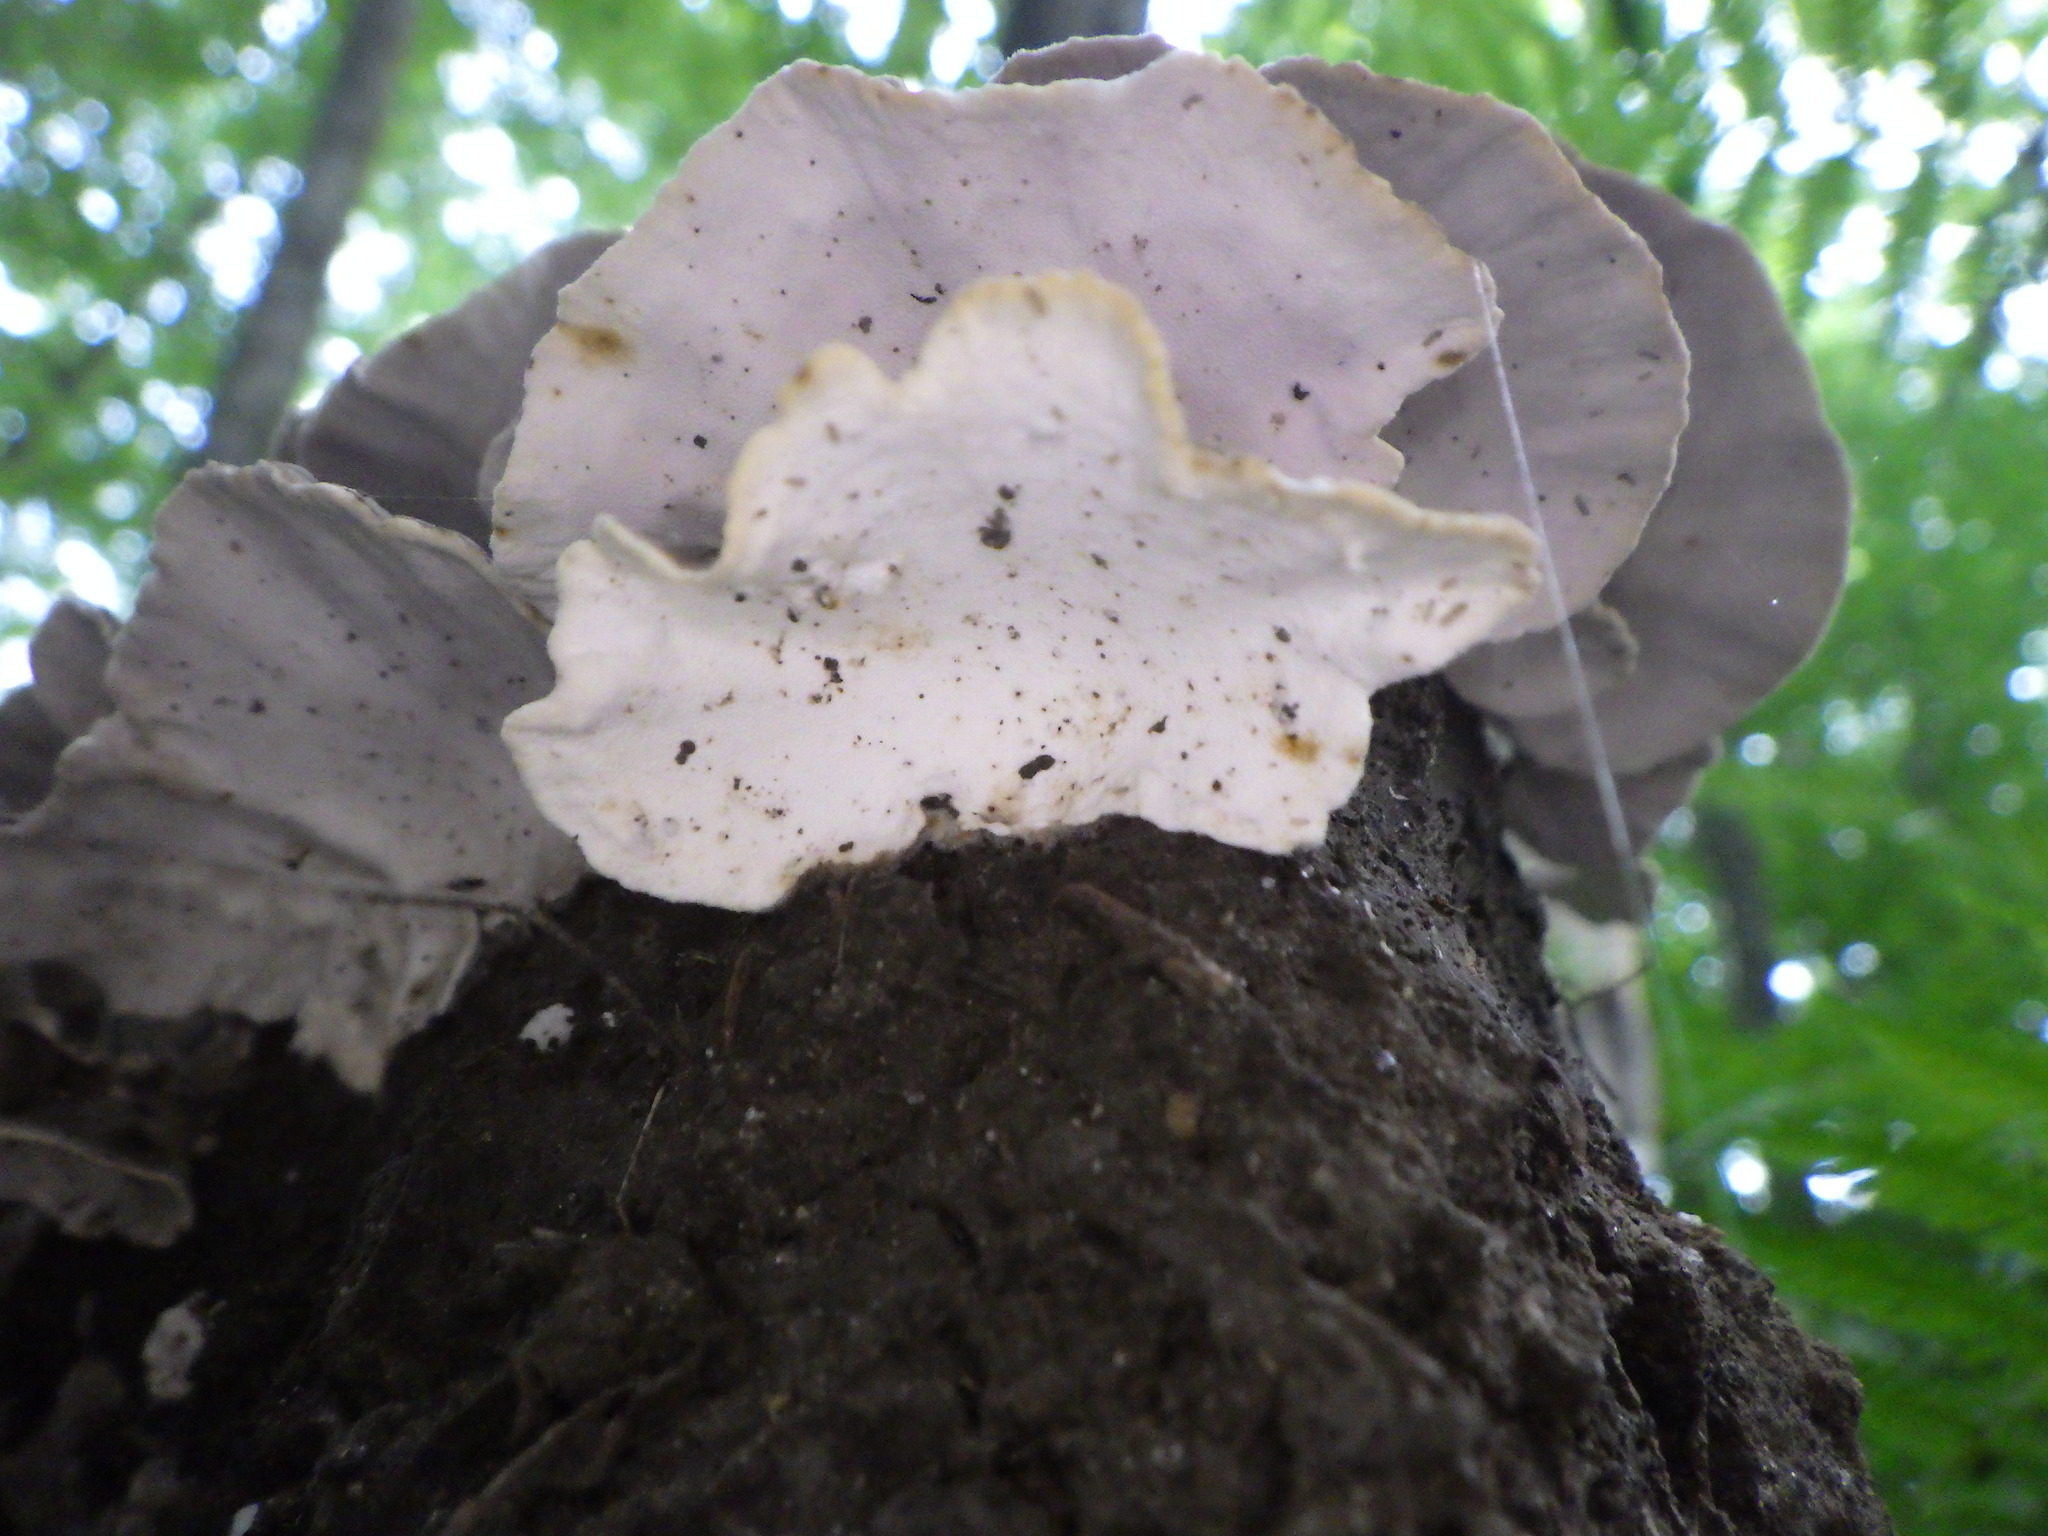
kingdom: Fungi
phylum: Basidiomycota
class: Agaricomycetes
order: Polyporales
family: Polyporaceae
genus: Trametes
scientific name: Trametes versicolor
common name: Turkeytail
